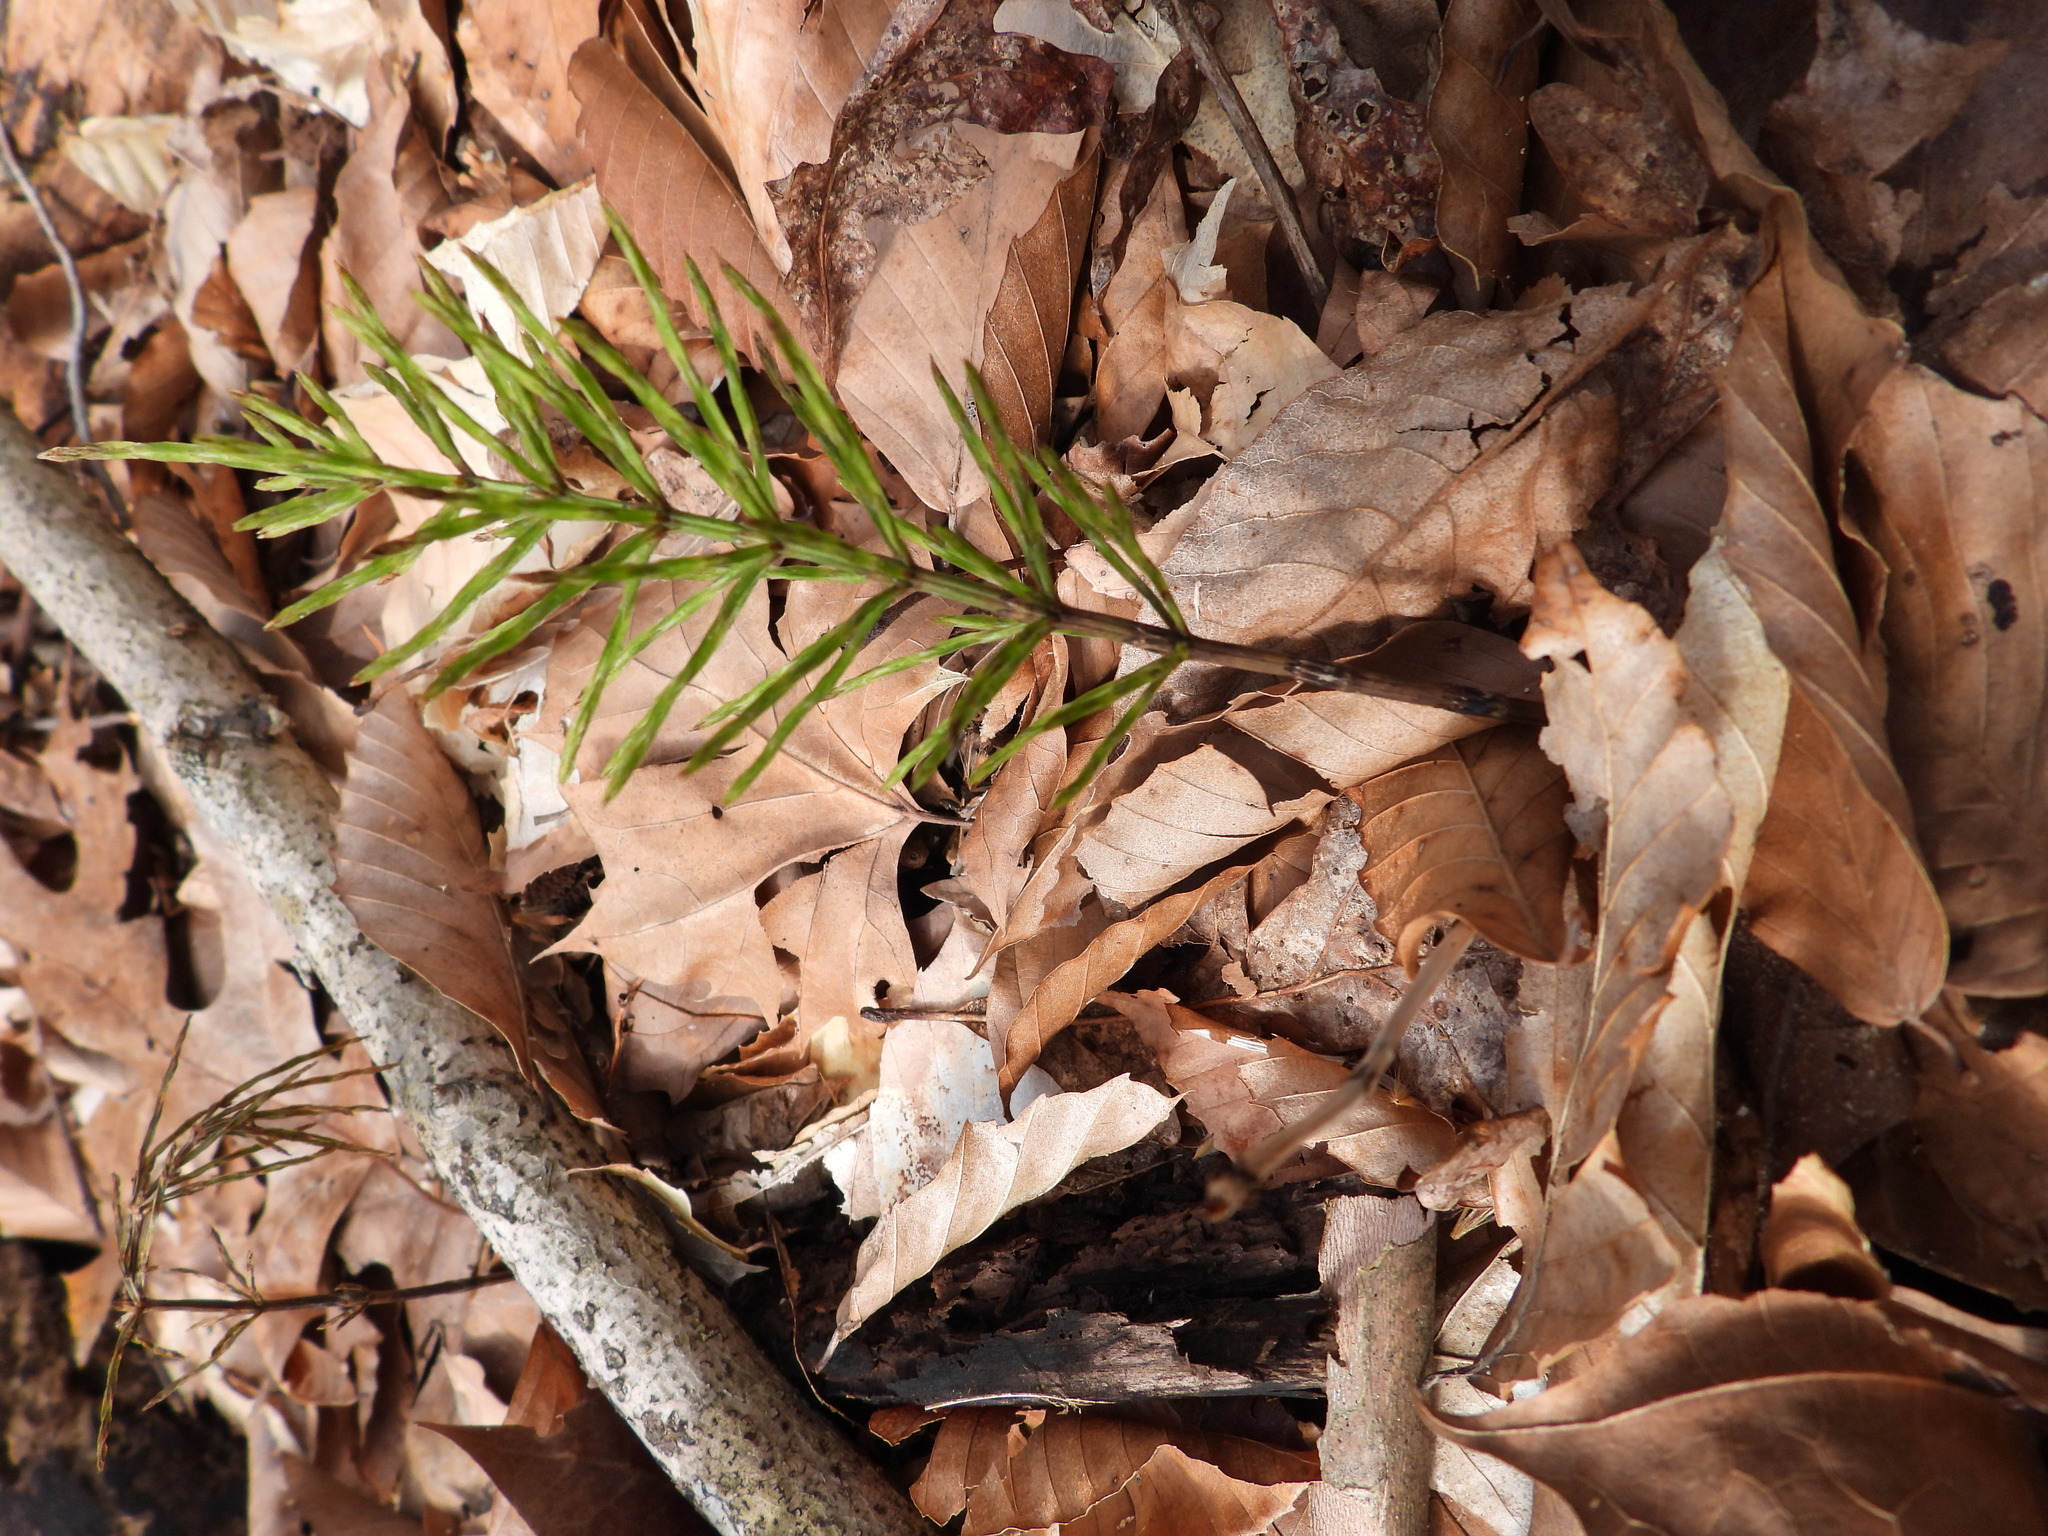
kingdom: Plantae
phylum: Tracheophyta
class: Polypodiopsida
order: Equisetales
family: Equisetaceae
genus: Equisetum
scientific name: Equisetum arvense
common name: Field horsetail
